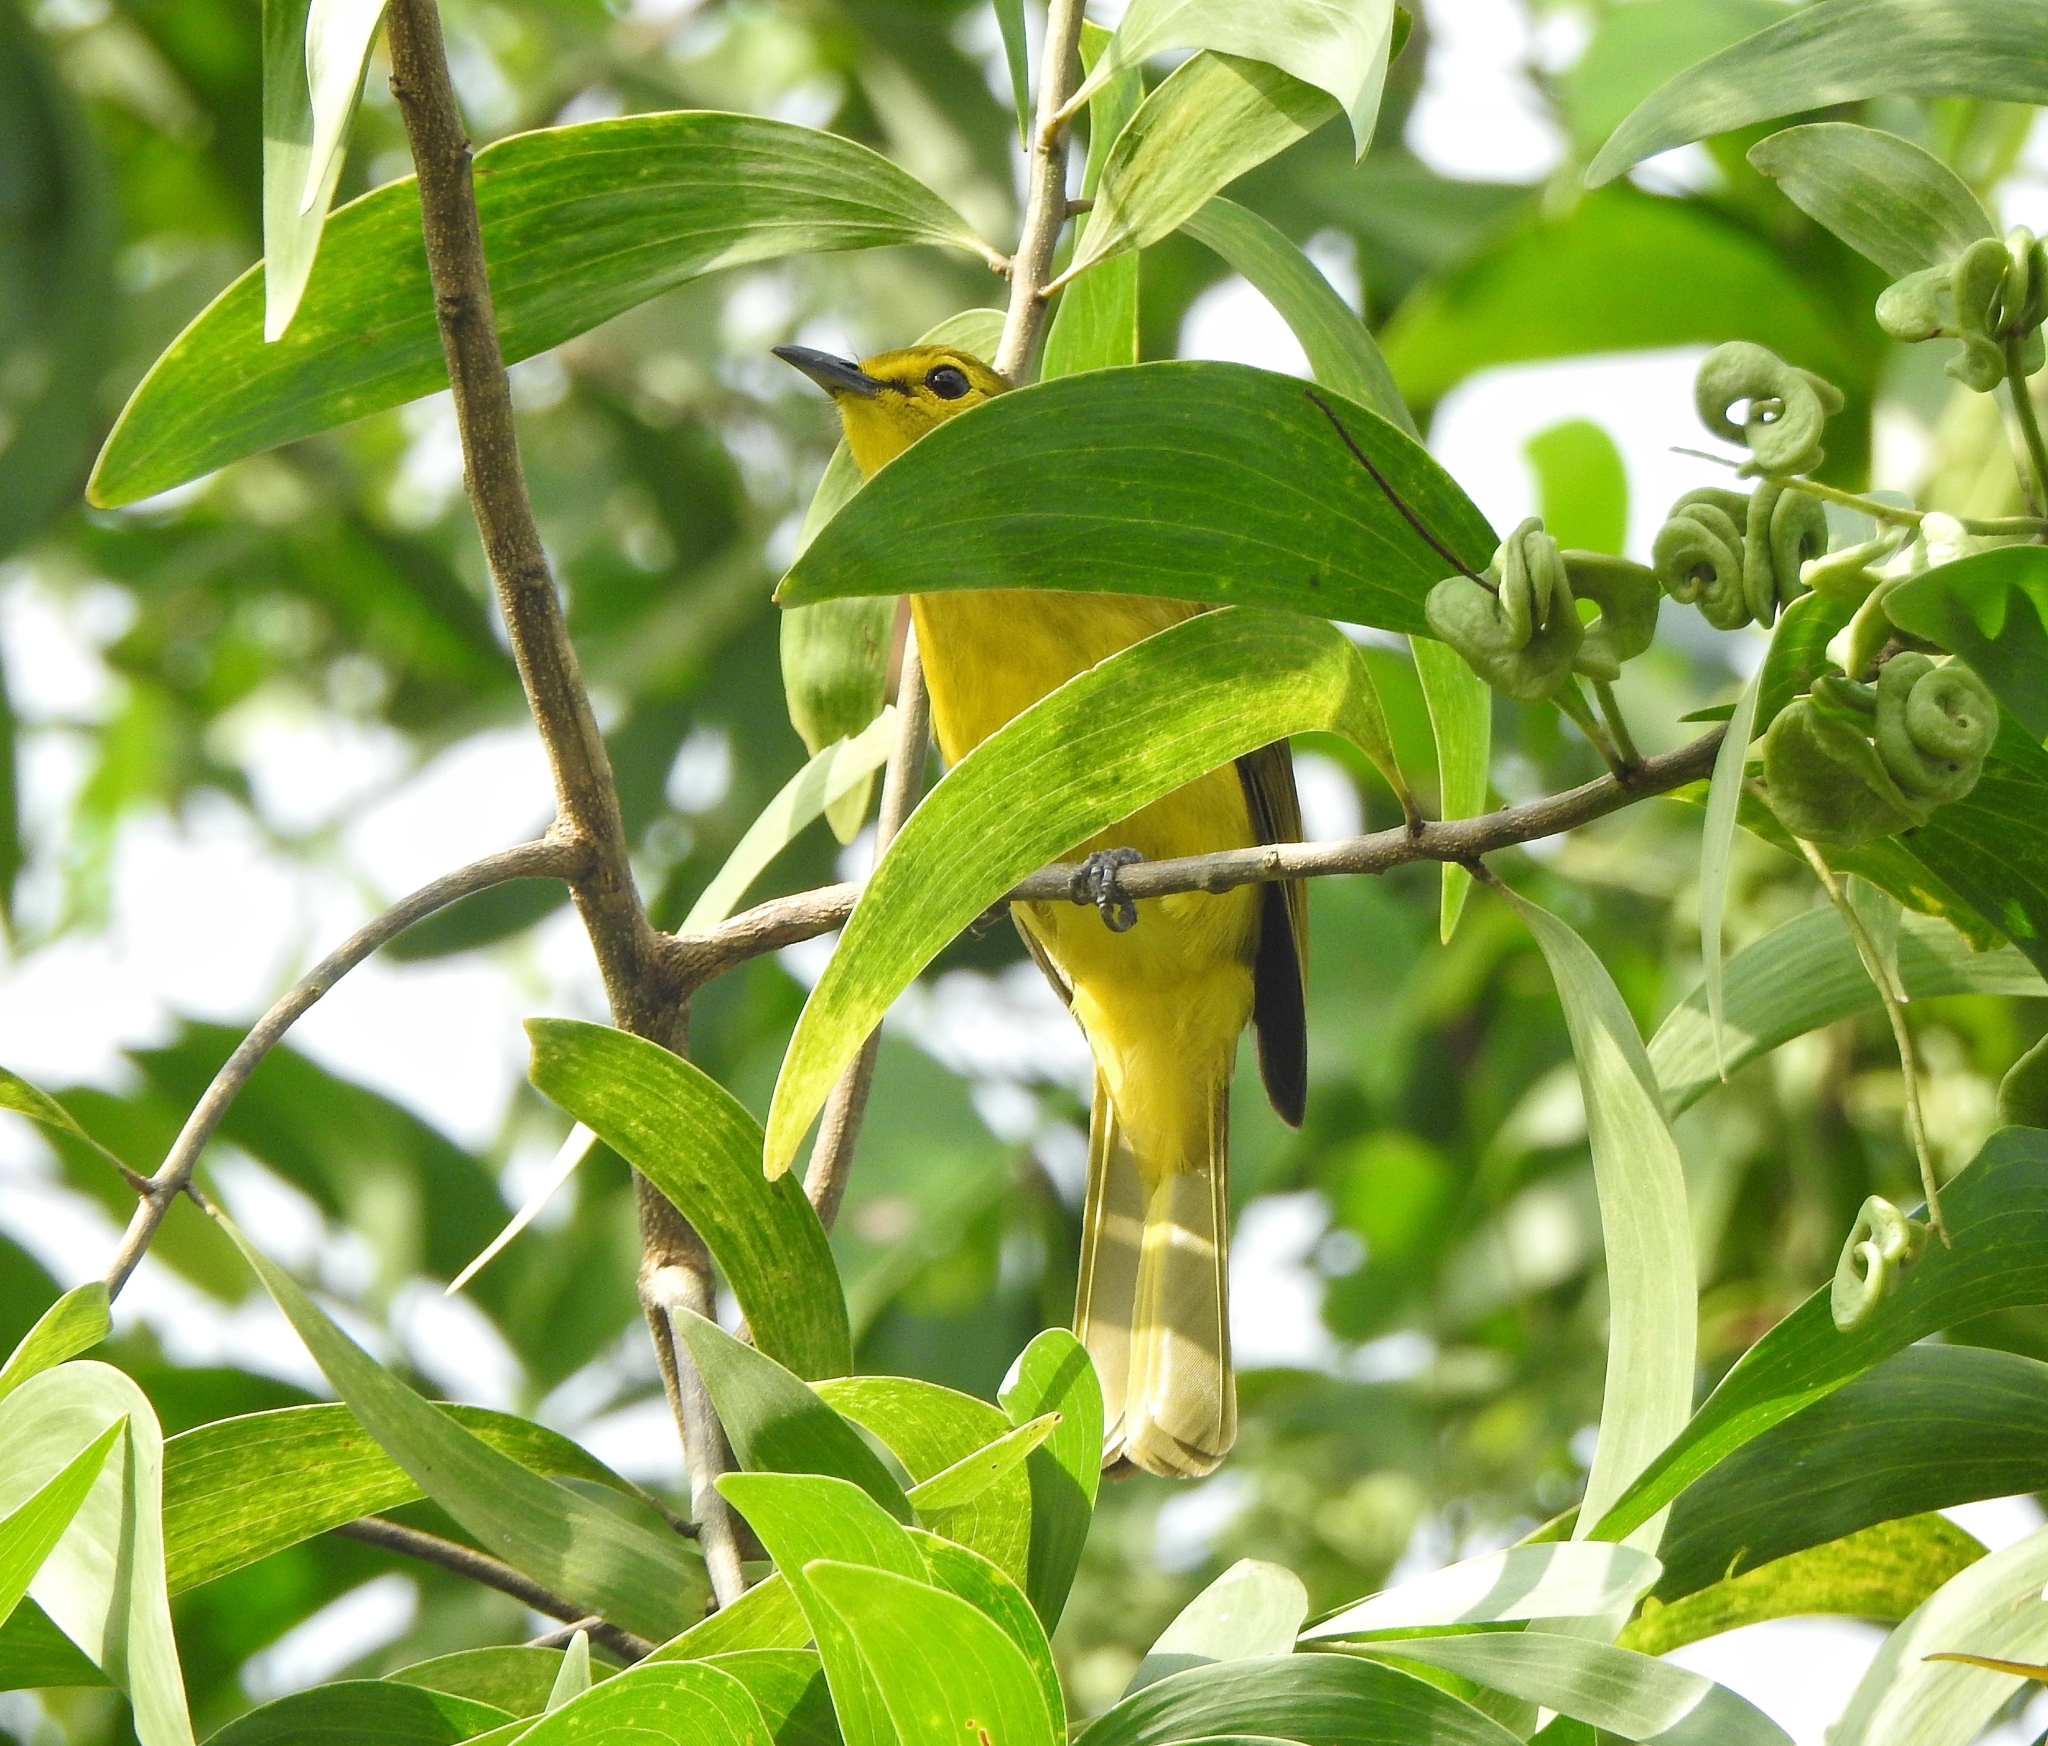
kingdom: Animalia
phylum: Chordata
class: Aves
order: Passeriformes
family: Pycnonotidae
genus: Acritillas
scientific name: Acritillas indica
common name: Yellow-browed bulbul
